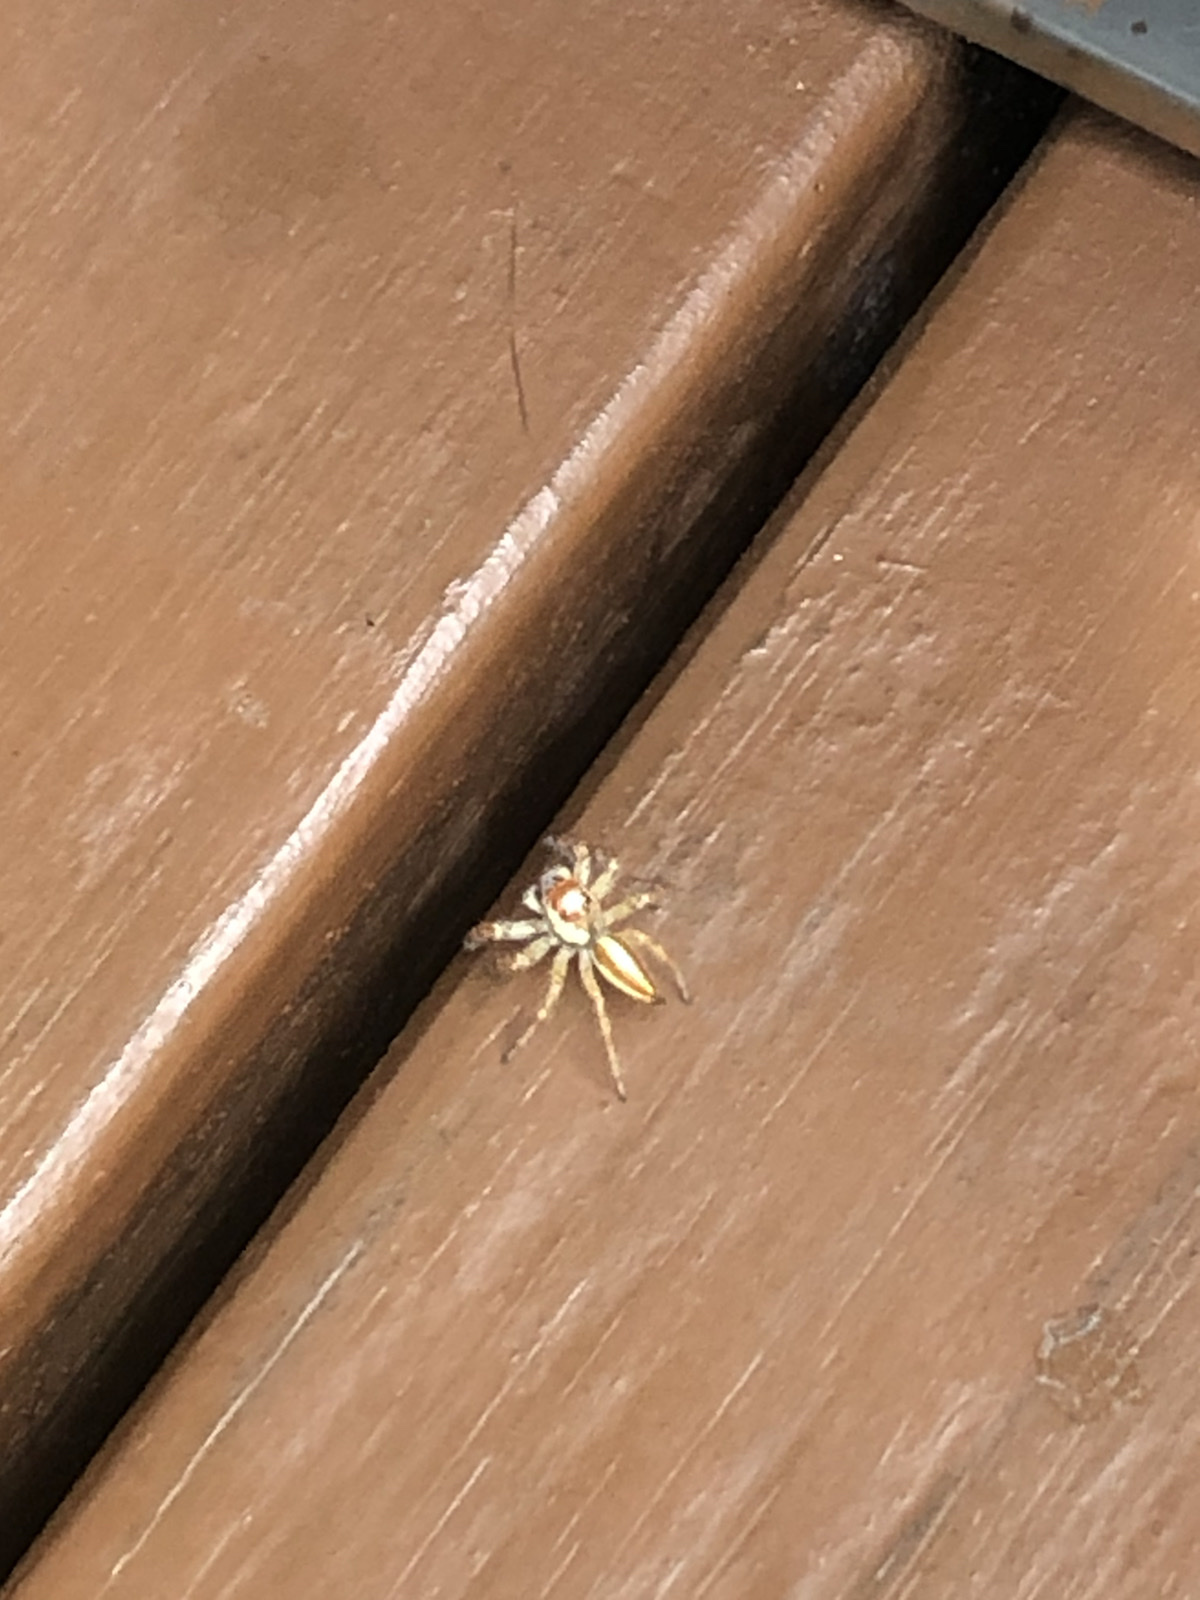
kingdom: Animalia
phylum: Arthropoda
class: Arachnida
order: Araneae
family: Salticidae
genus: Telamonia
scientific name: Telamonia vlijmi
